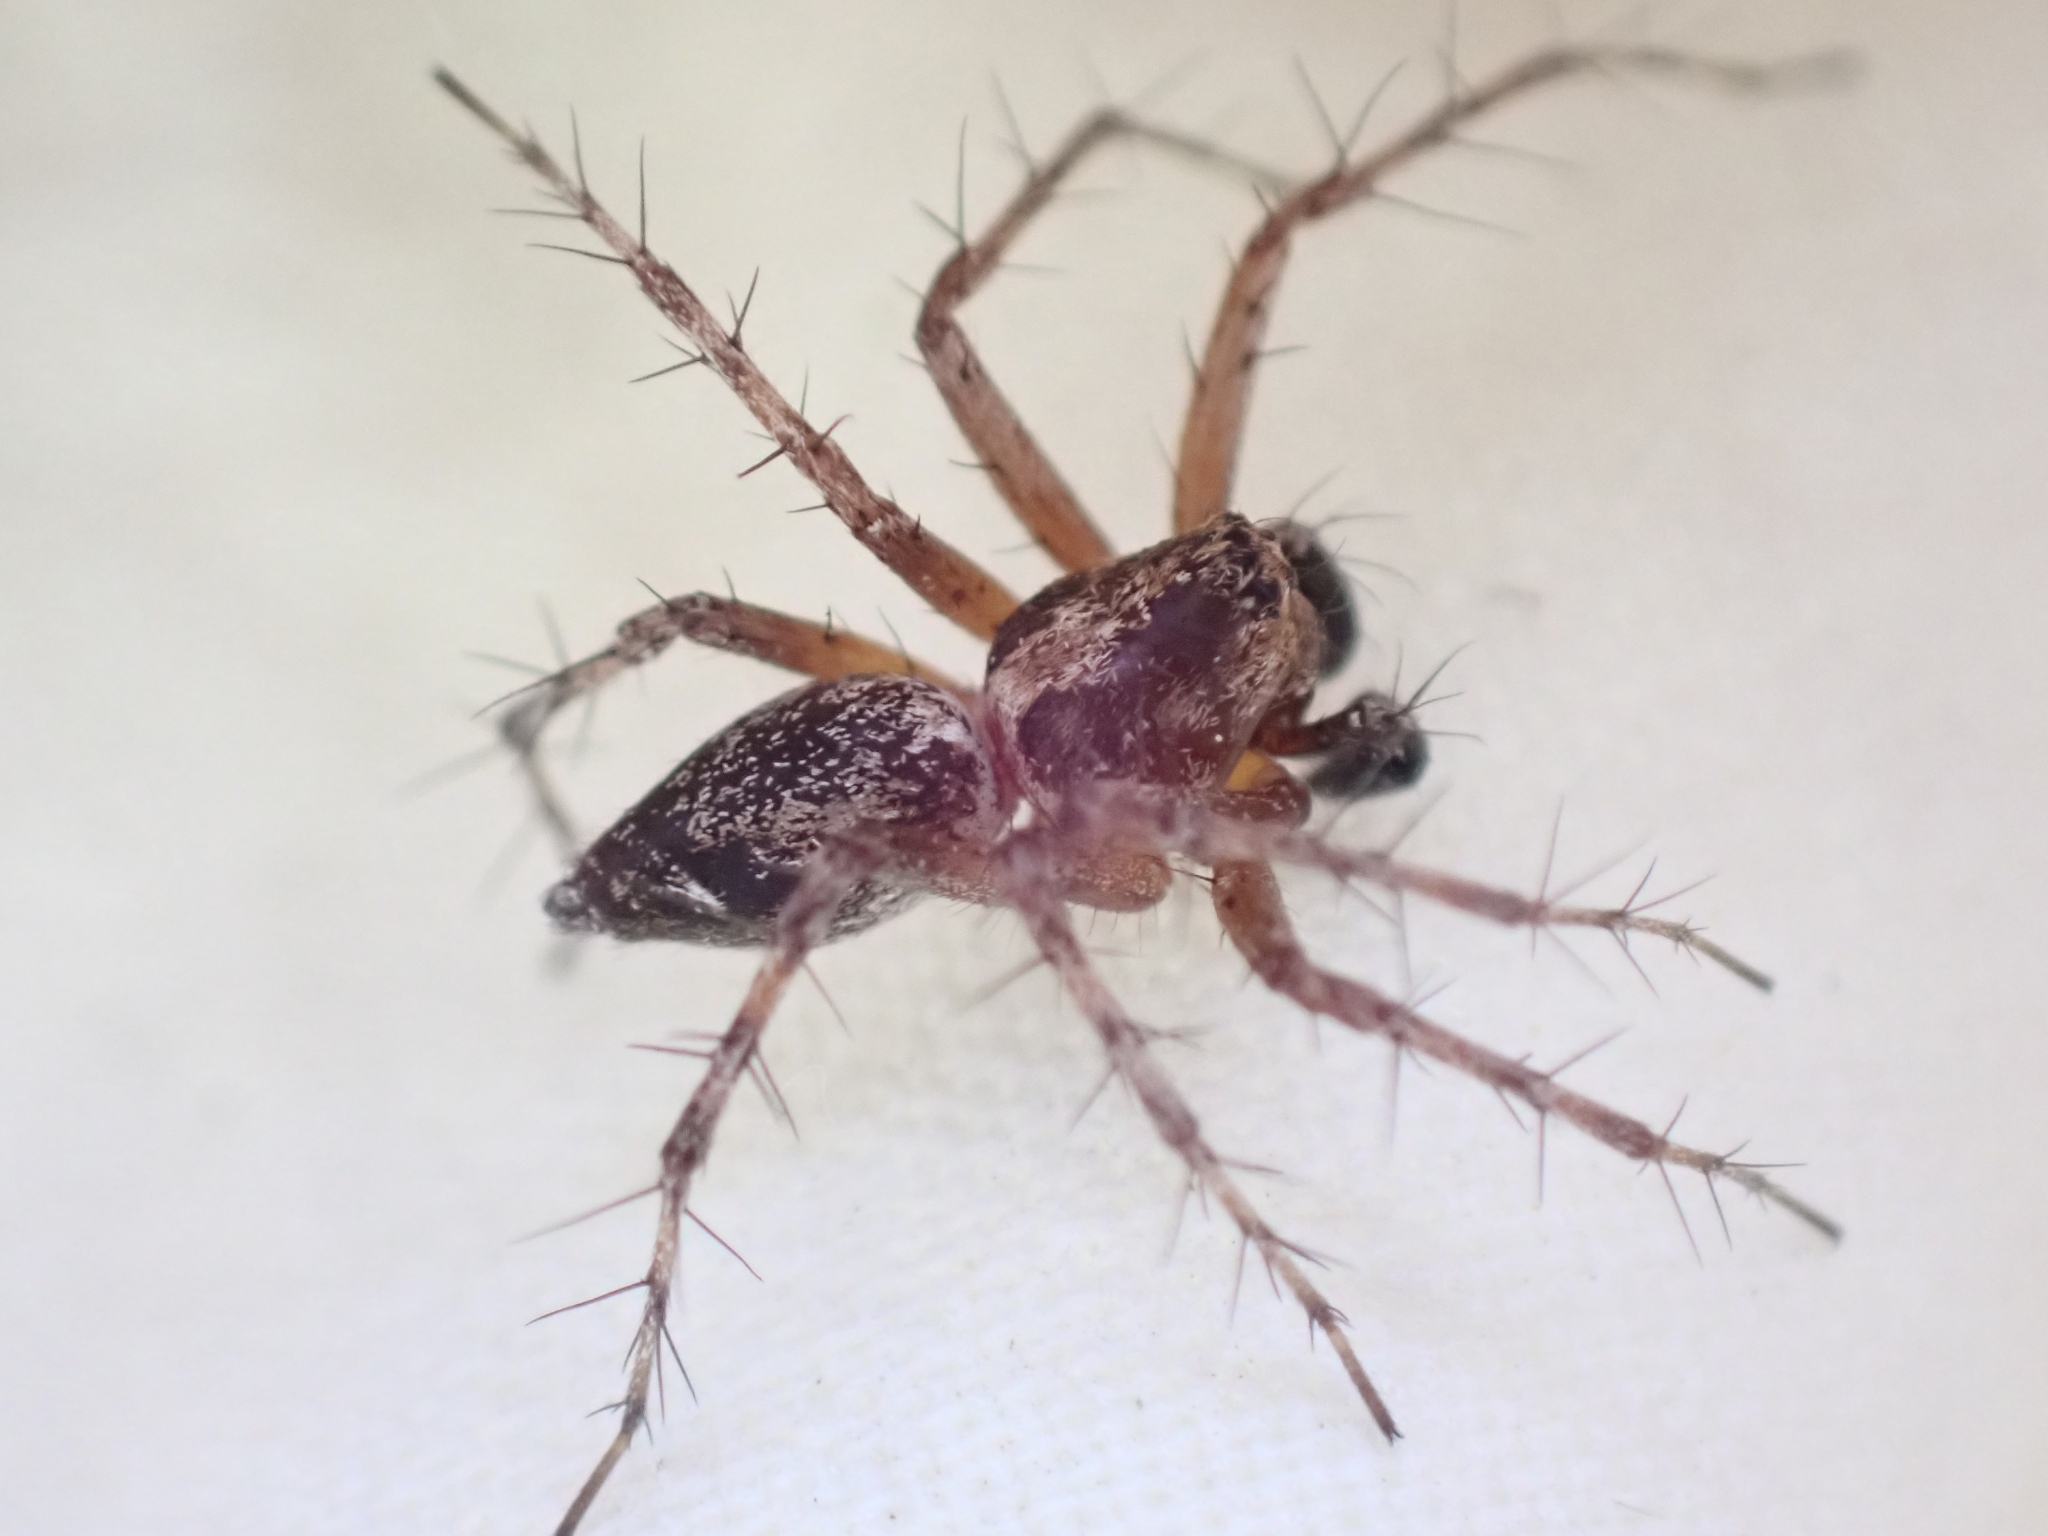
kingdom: Animalia
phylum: Arthropoda
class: Arachnida
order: Araneae
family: Oxyopidae
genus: Oxyopes
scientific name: Oxyopes scalaris
